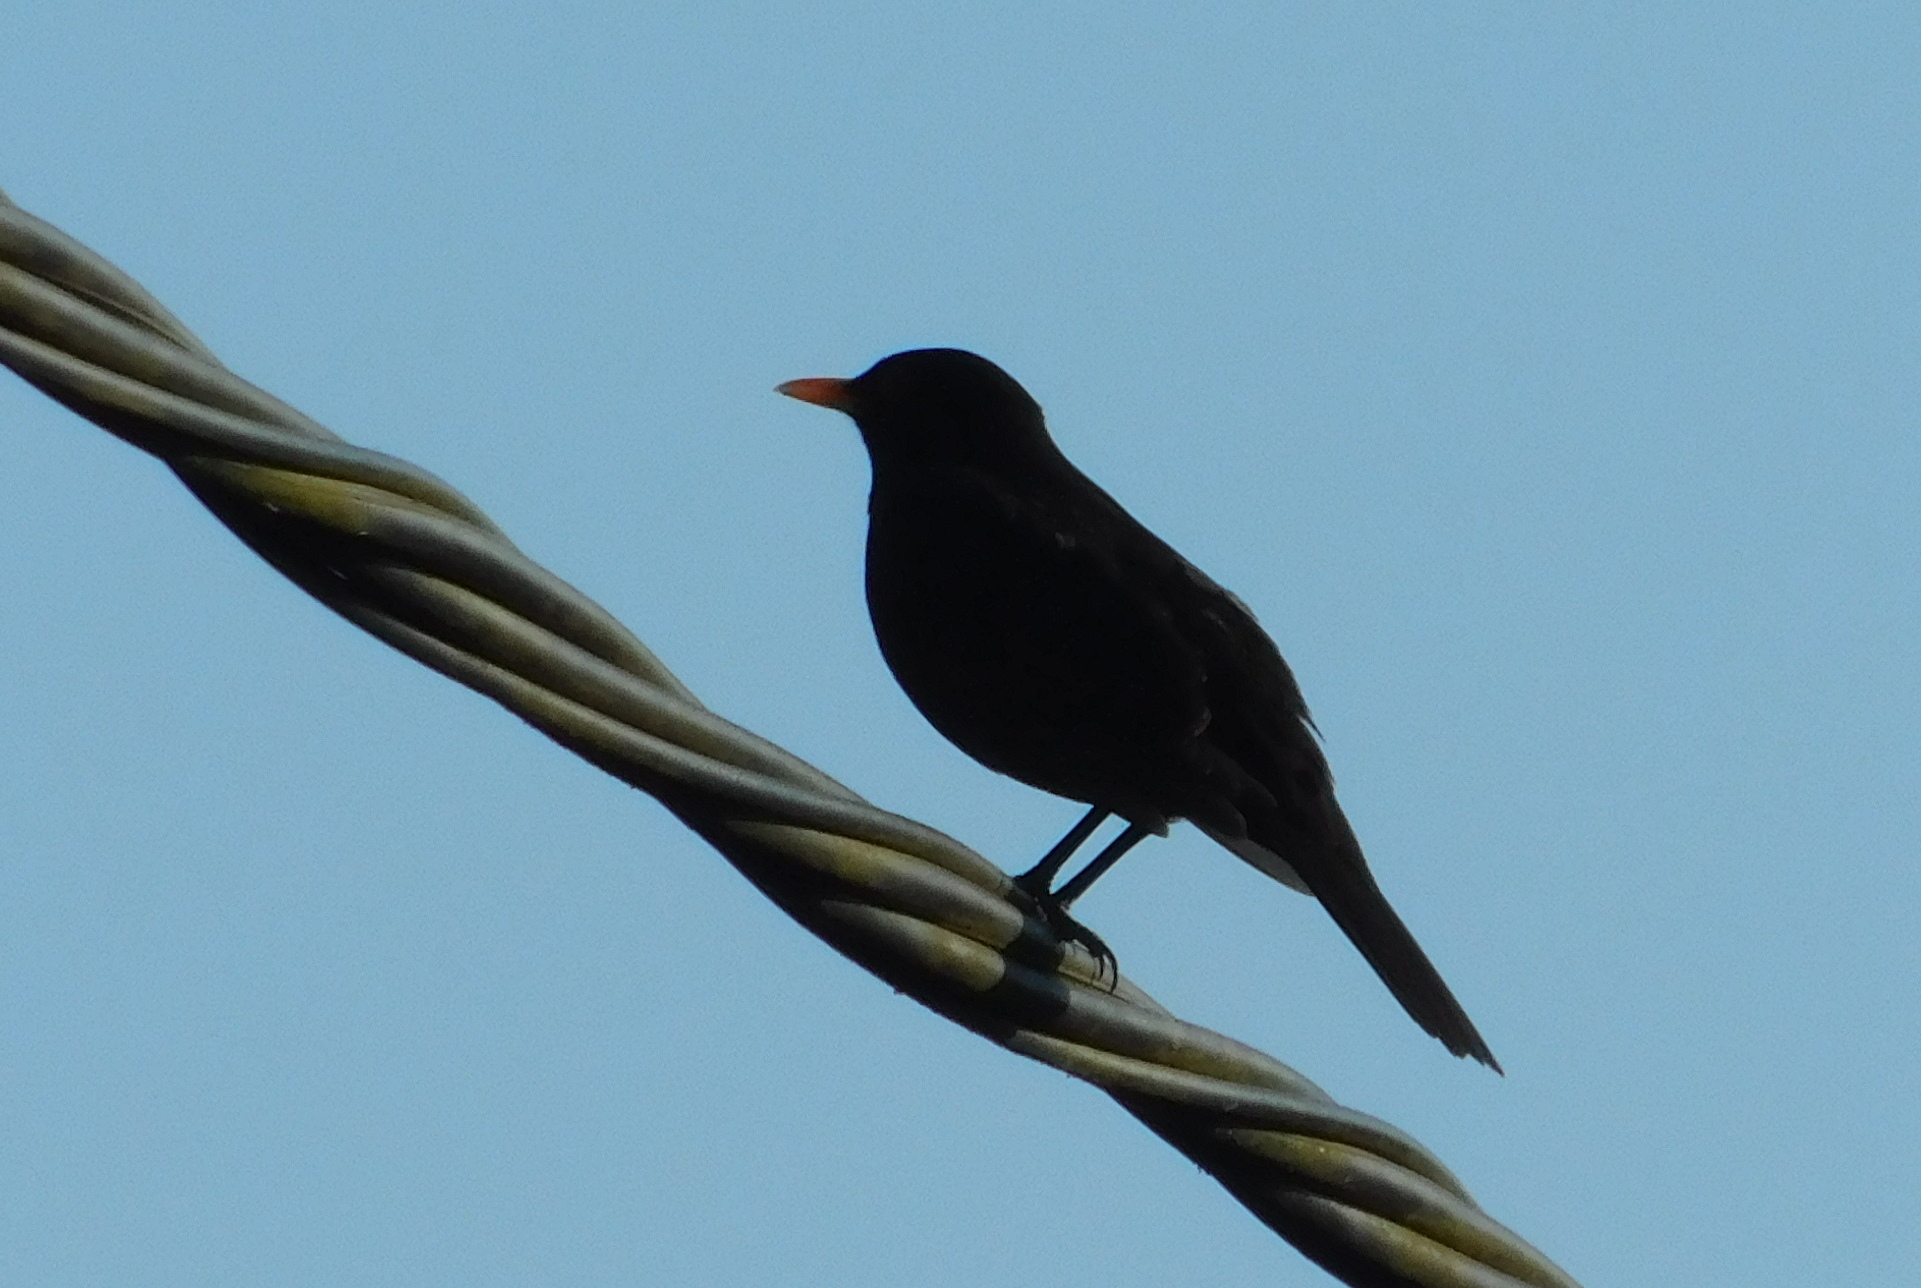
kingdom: Animalia
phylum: Chordata
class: Aves
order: Passeriformes
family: Turdidae
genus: Turdus
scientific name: Turdus merula
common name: Common blackbird
